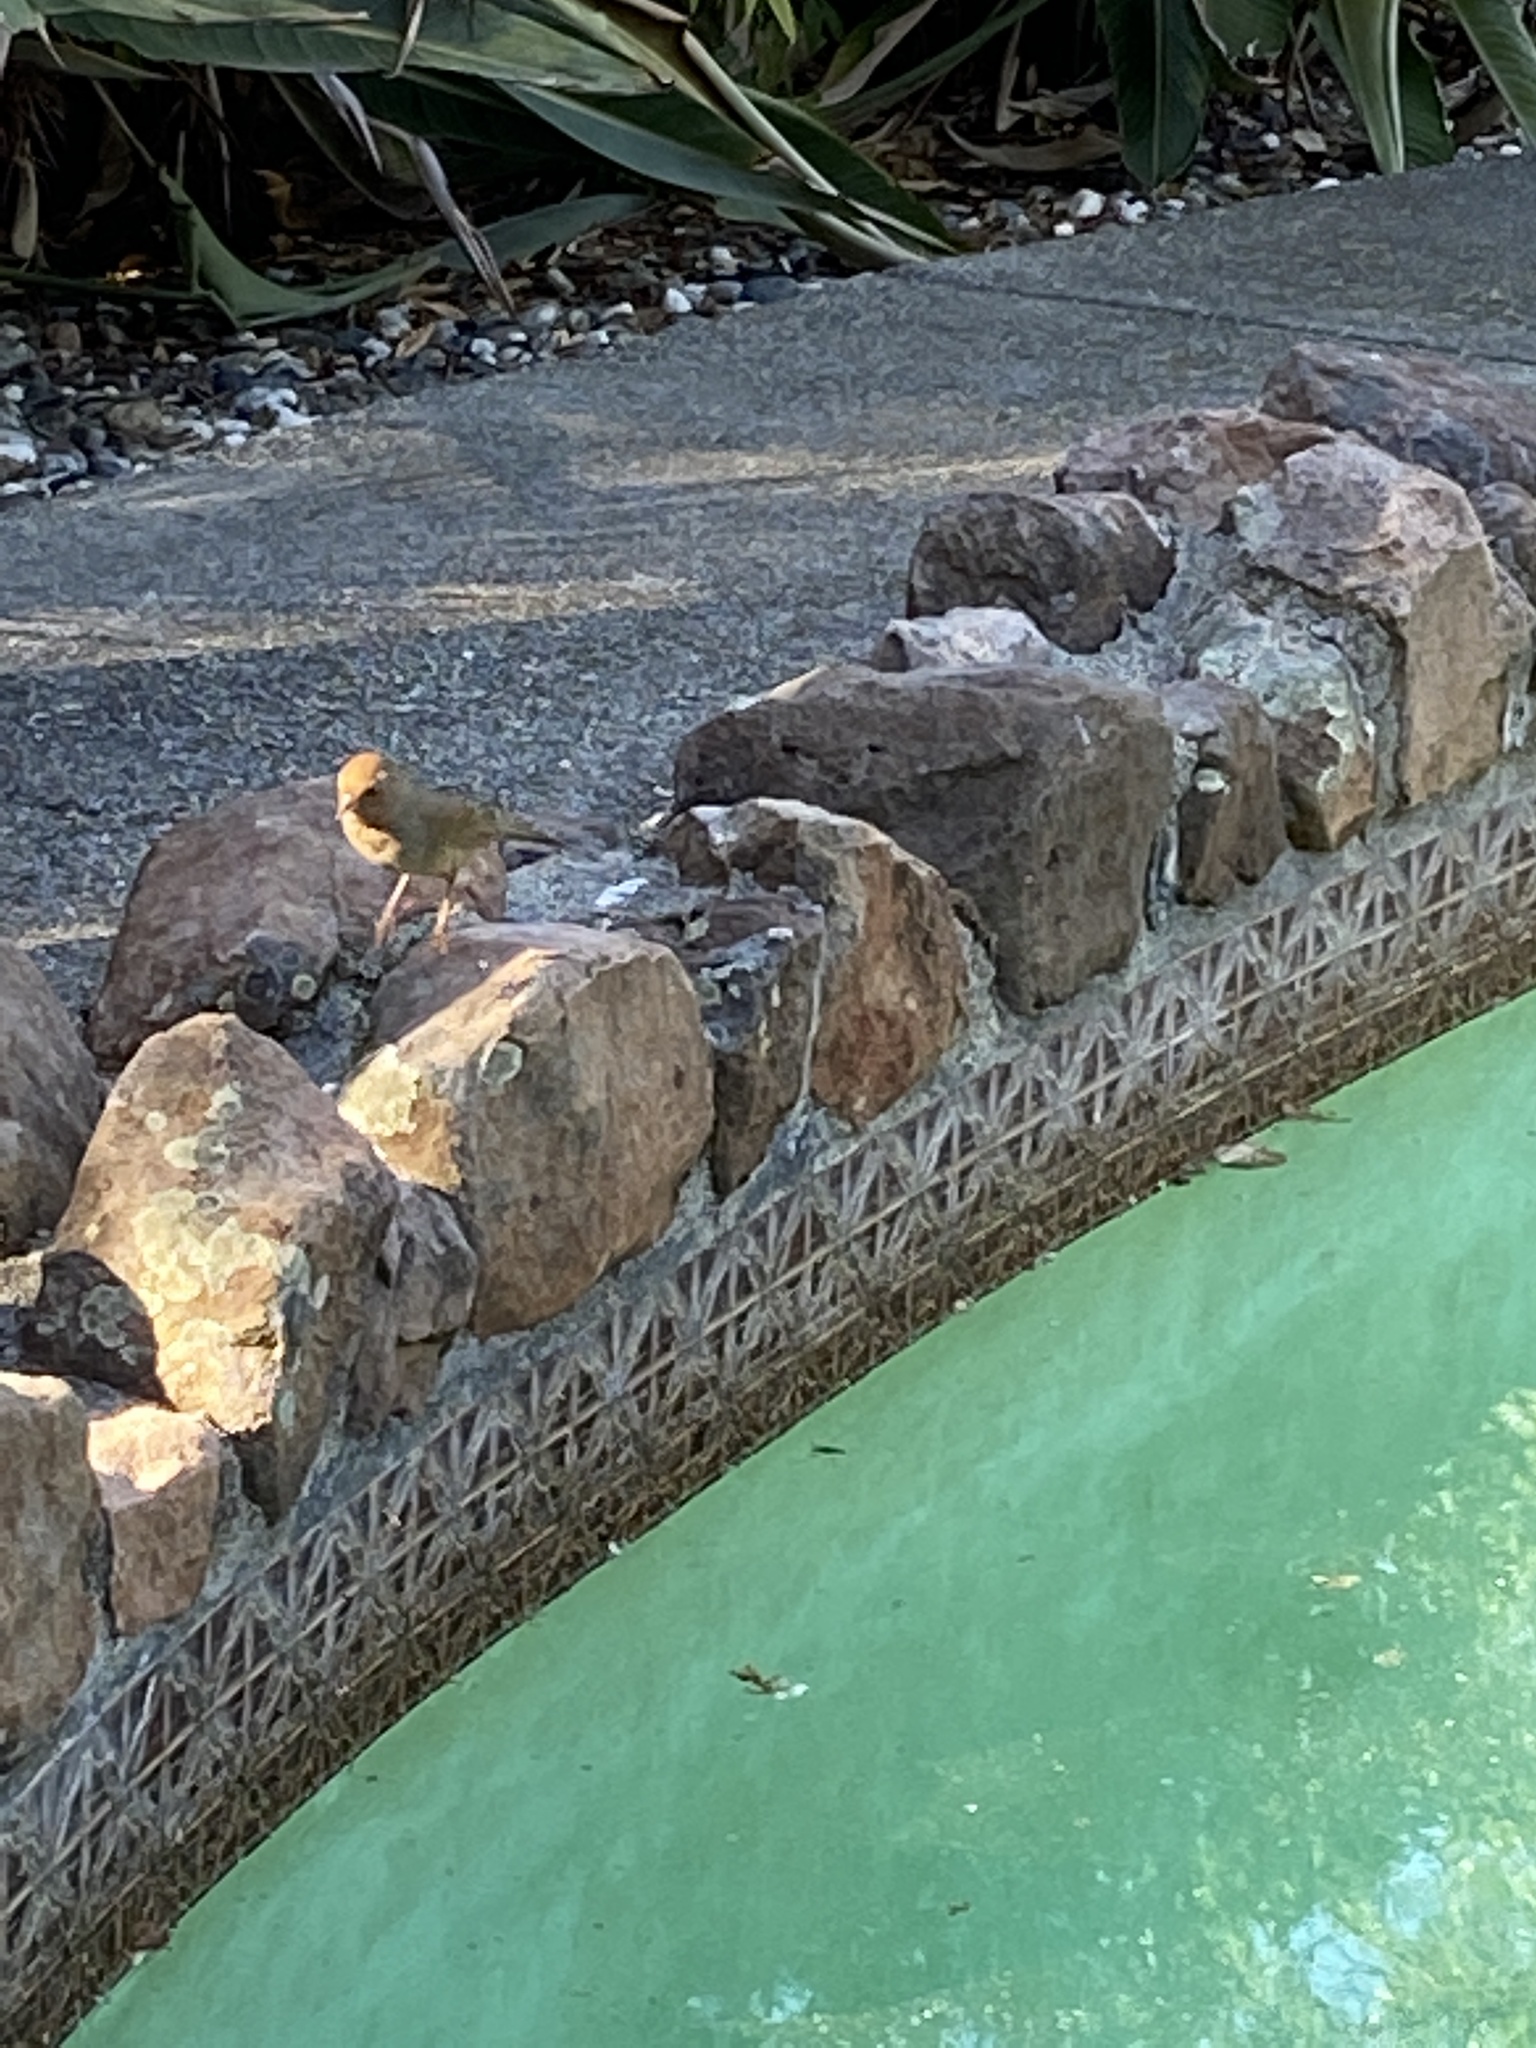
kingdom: Animalia
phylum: Chordata
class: Aves
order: Passeriformes
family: Passerellidae
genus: Melozone
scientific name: Melozone crissalis
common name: California towhee
